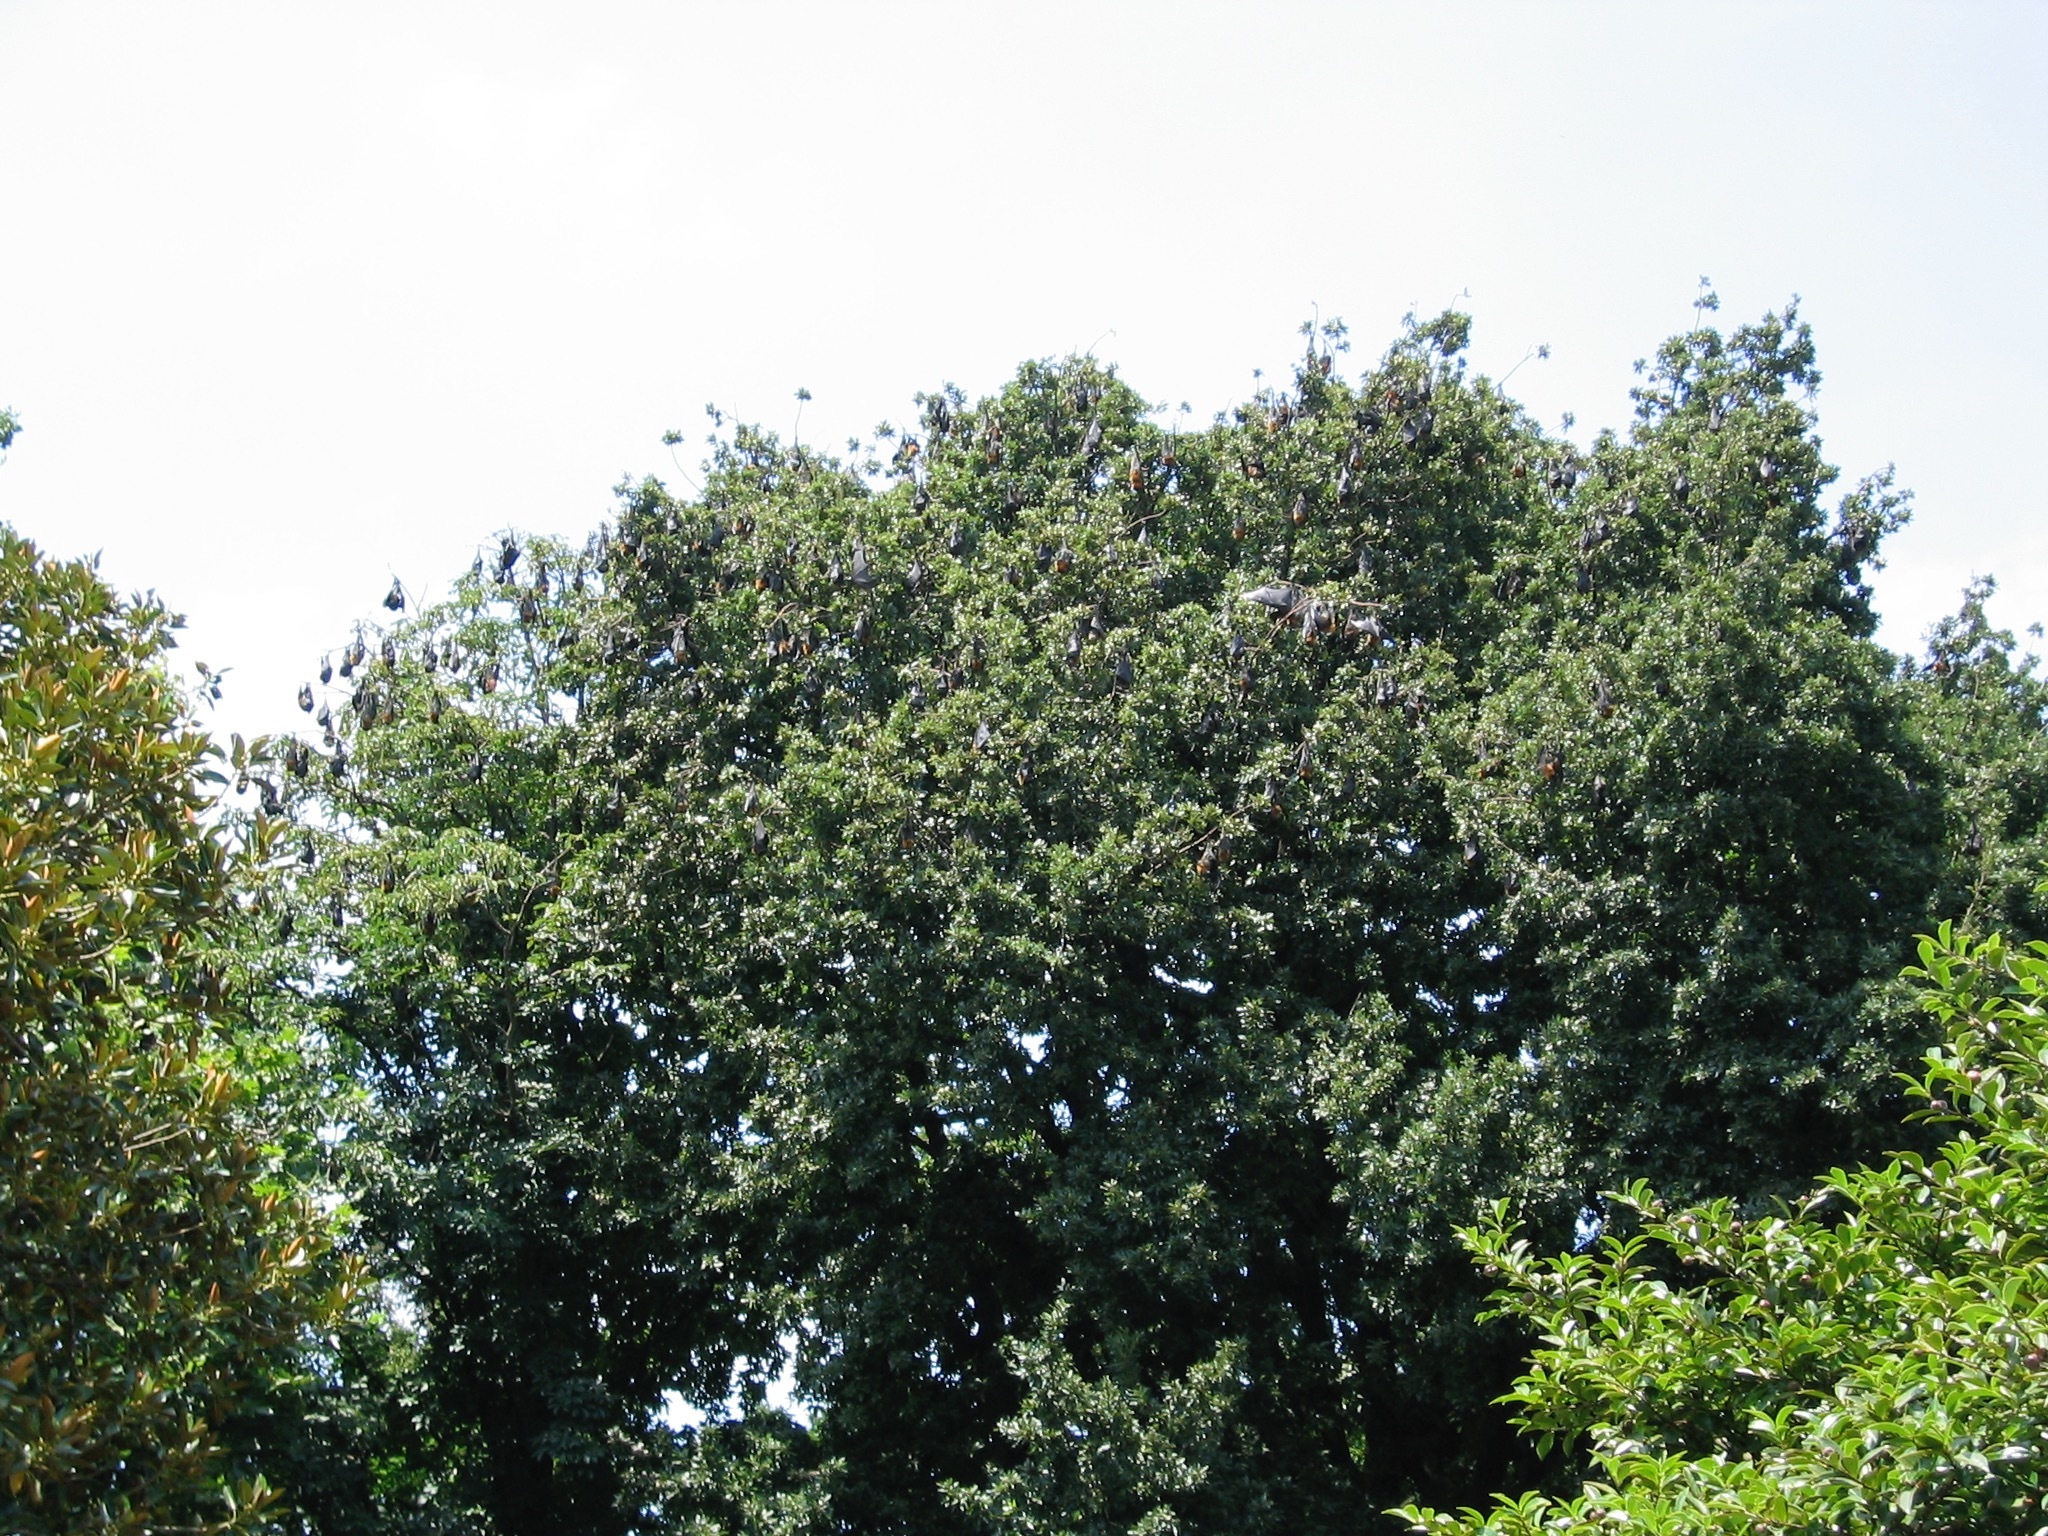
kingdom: Animalia
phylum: Chordata
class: Mammalia
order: Chiroptera
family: Pteropodidae
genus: Pteropus
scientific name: Pteropus poliocephalus
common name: Gray-headed flying fox
